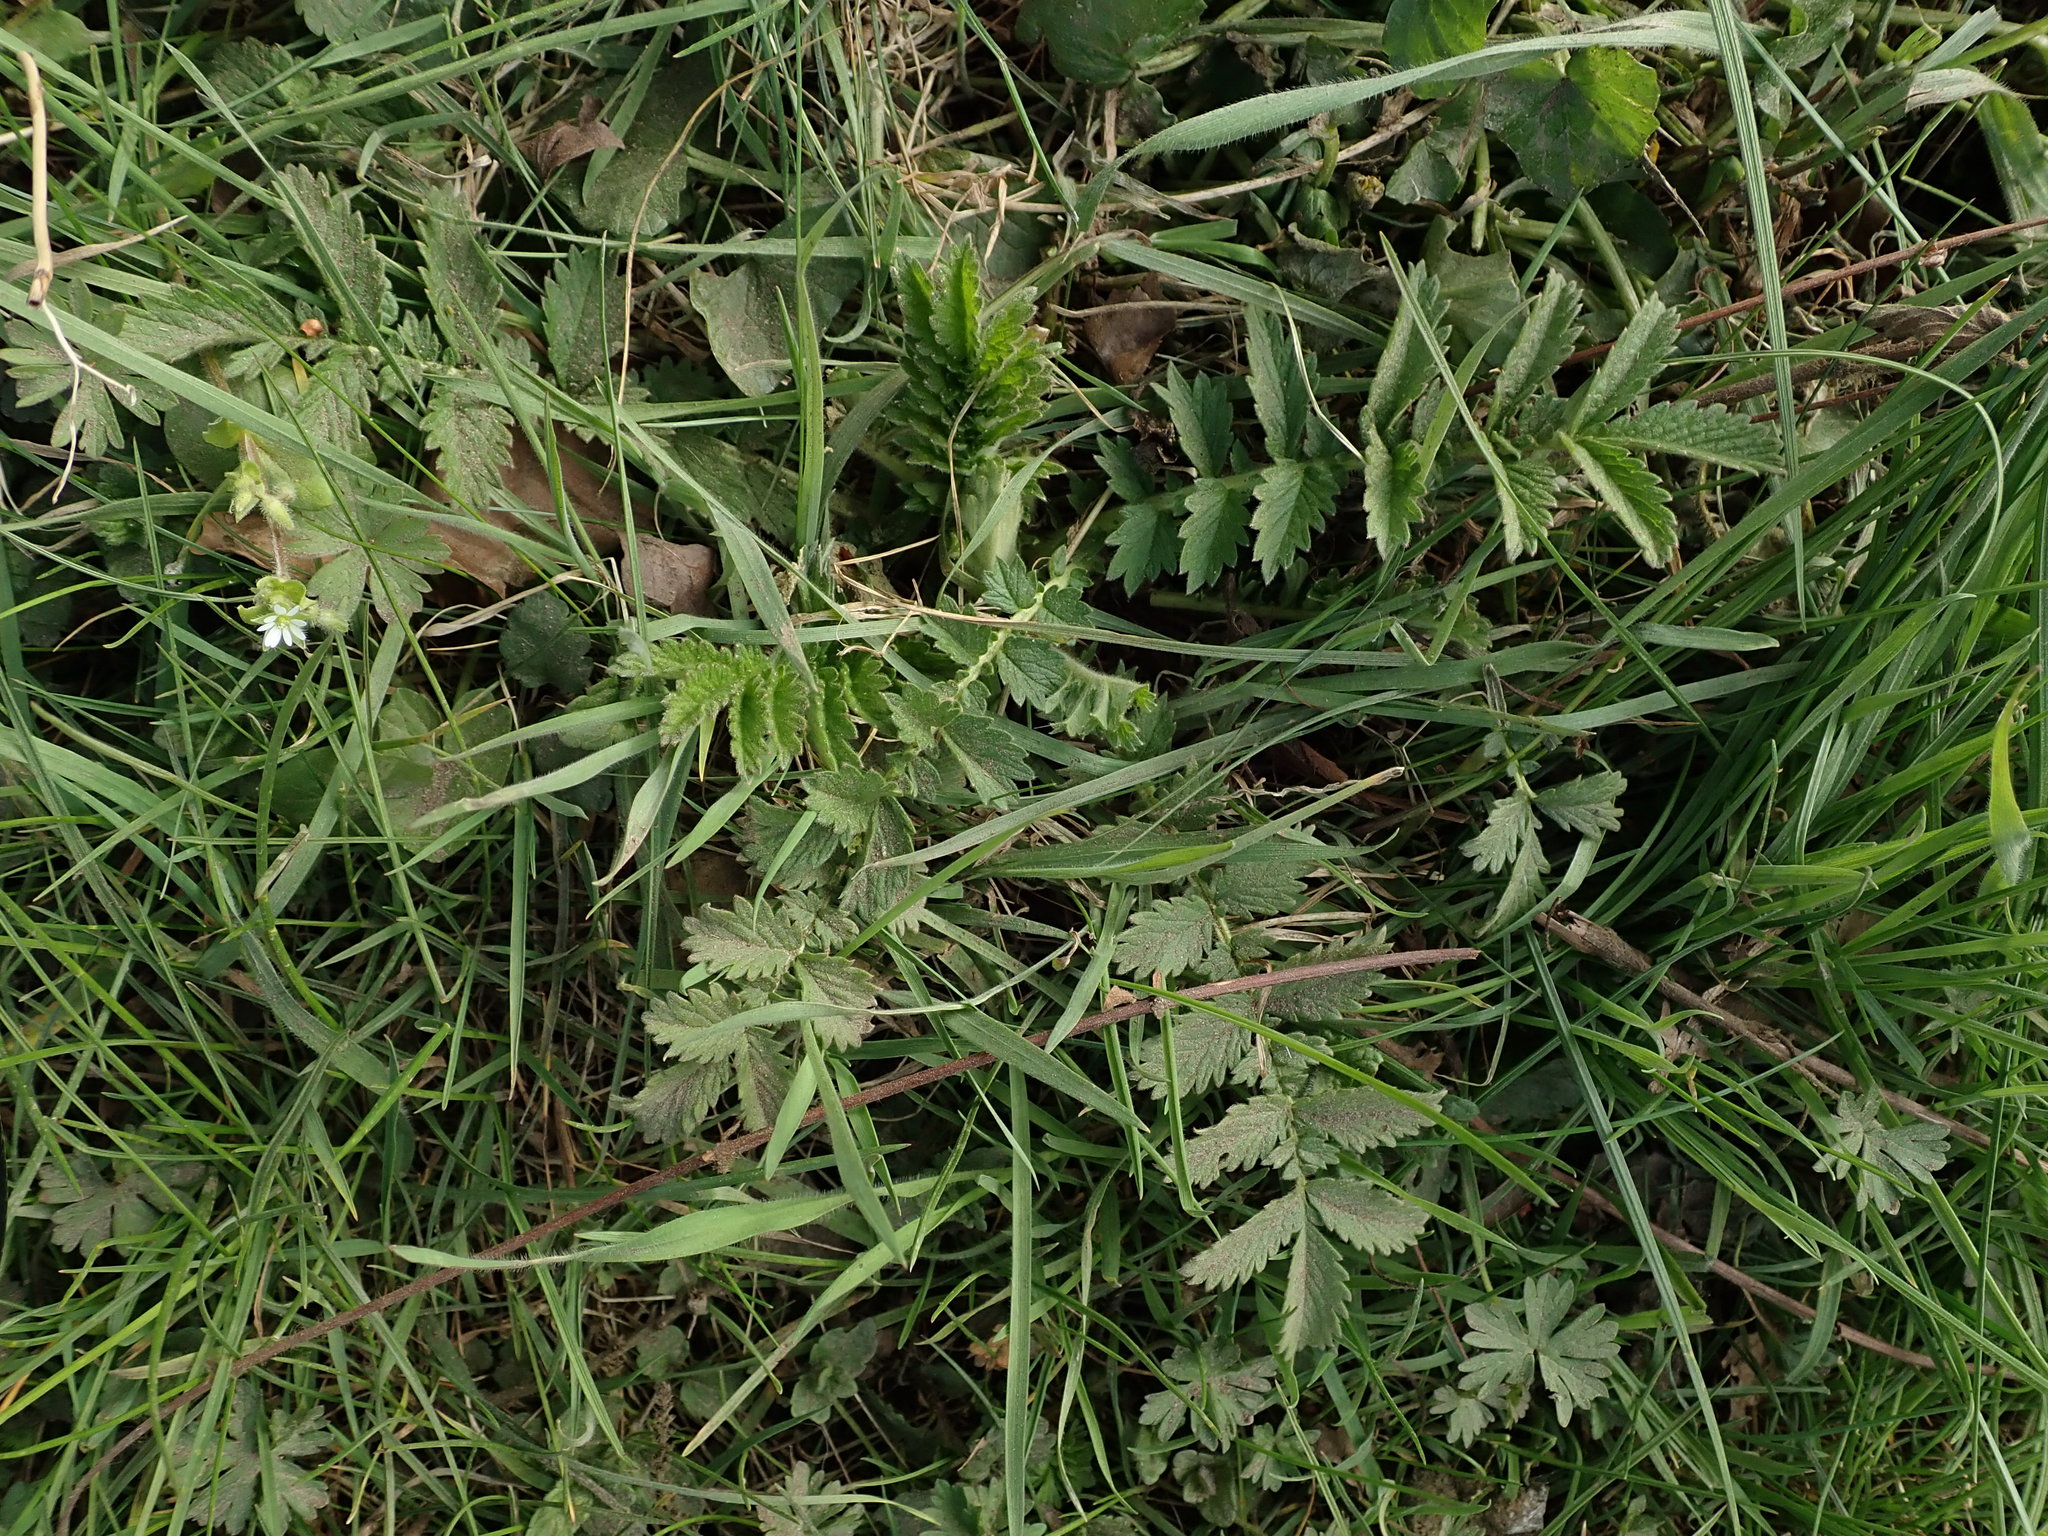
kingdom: Plantae
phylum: Tracheophyta
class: Magnoliopsida
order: Rosales
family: Rosaceae
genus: Agrimonia
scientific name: Agrimonia eupatoria
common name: Agrimony
